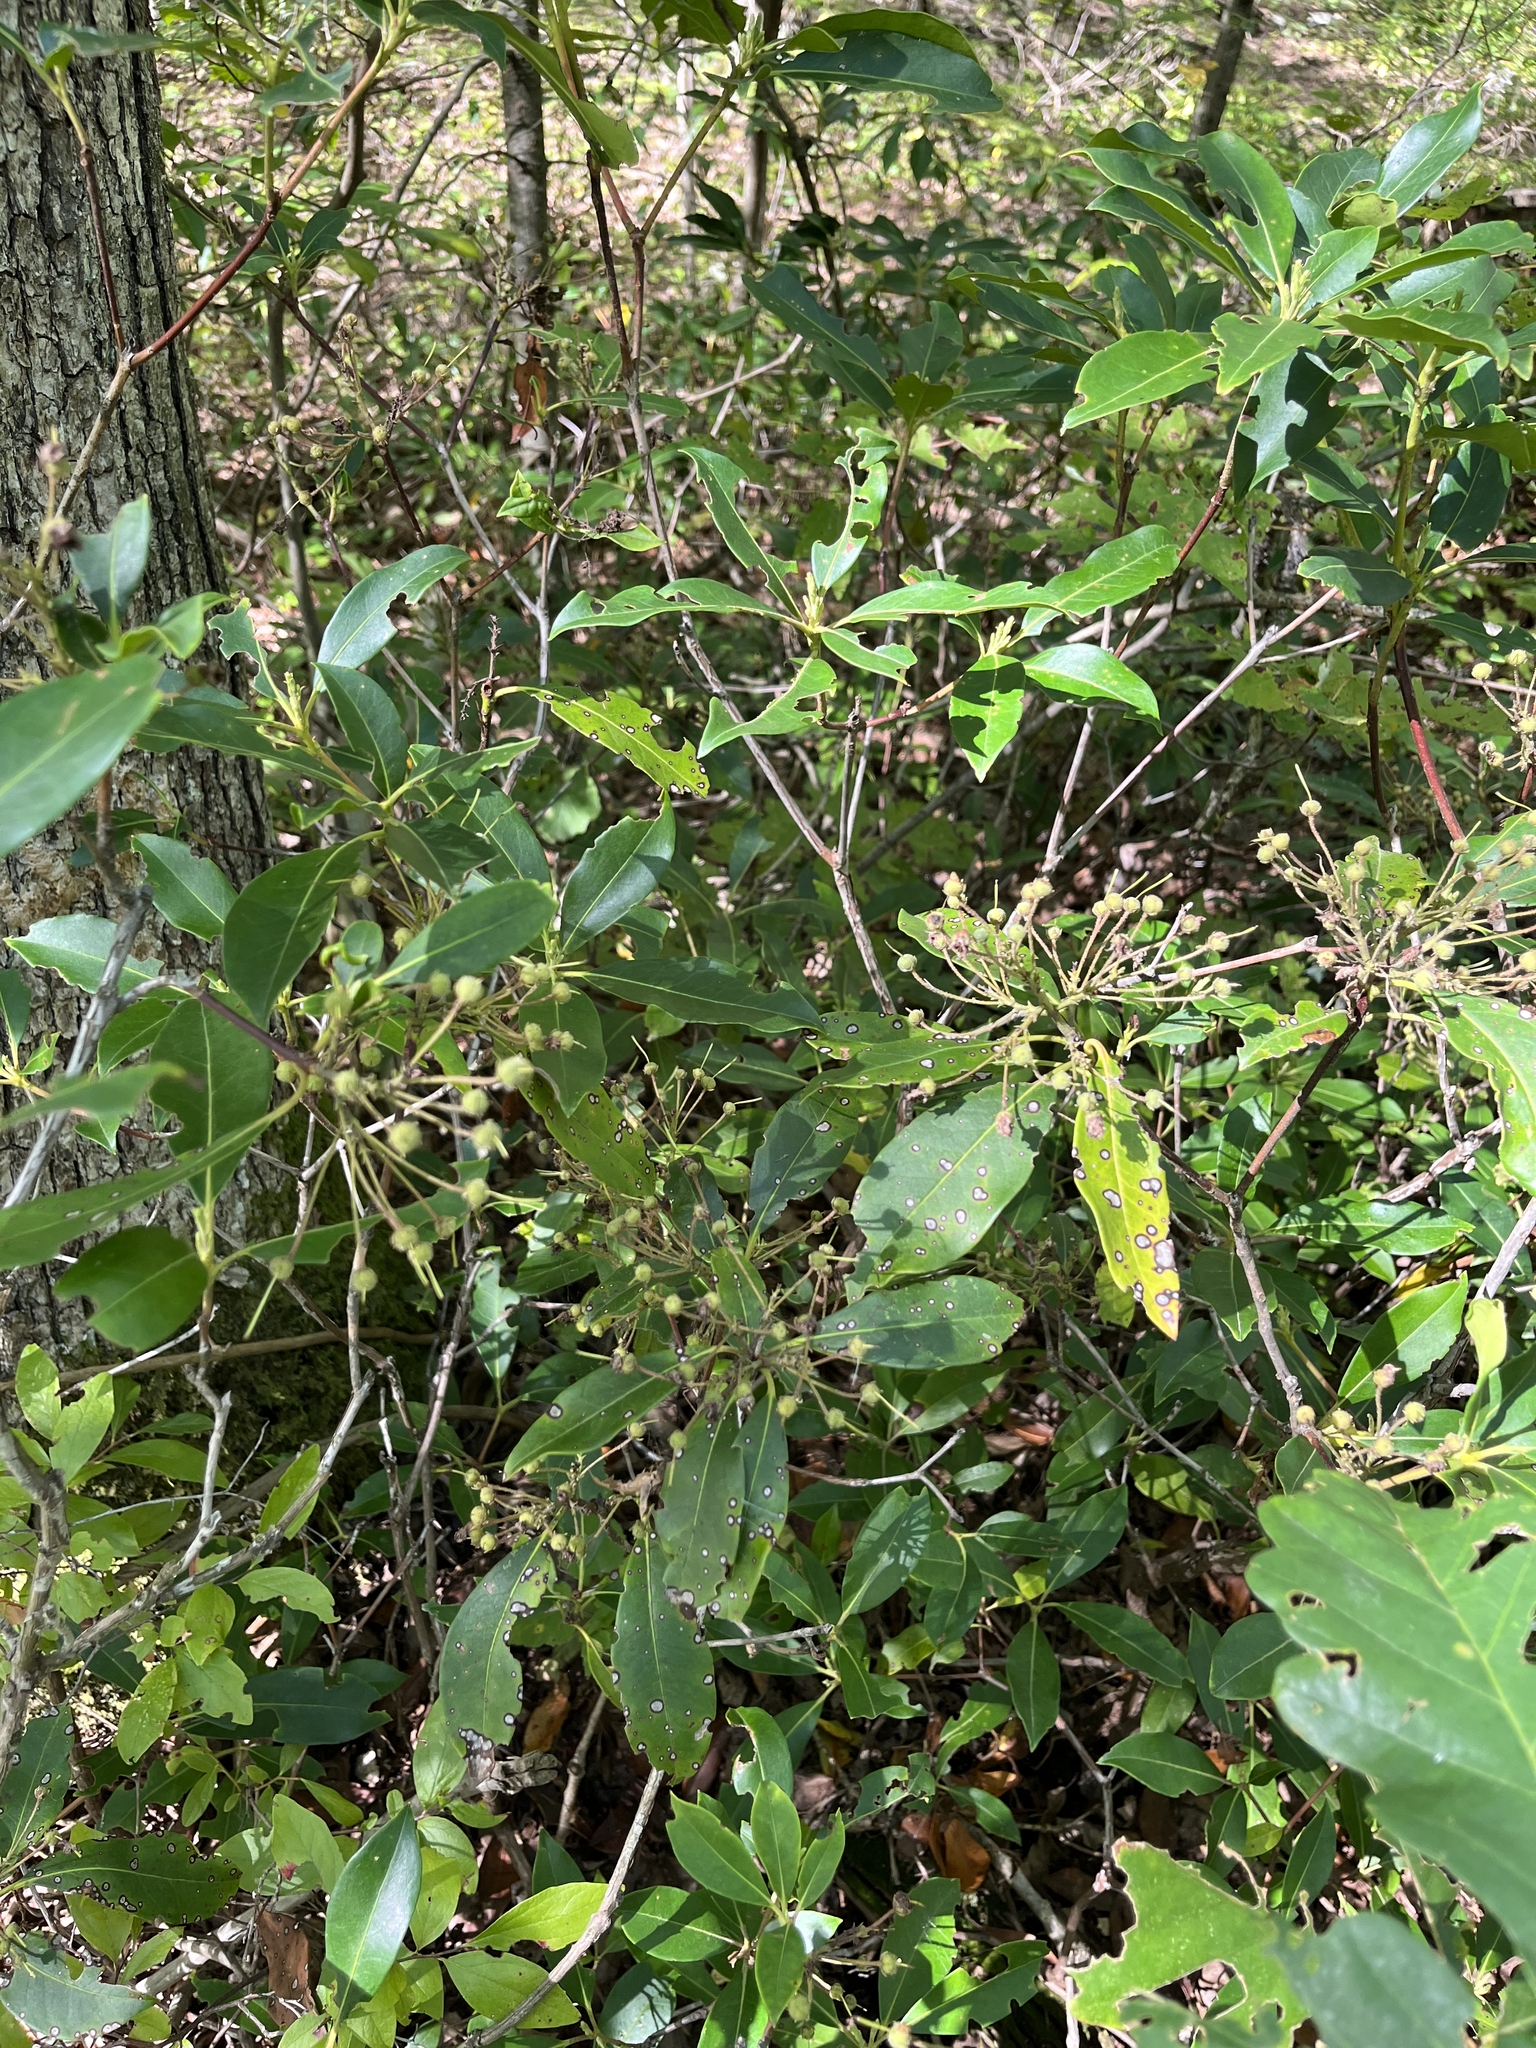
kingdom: Plantae
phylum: Tracheophyta
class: Magnoliopsida
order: Ericales
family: Ericaceae
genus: Kalmia
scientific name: Kalmia latifolia
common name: Mountain-laurel
